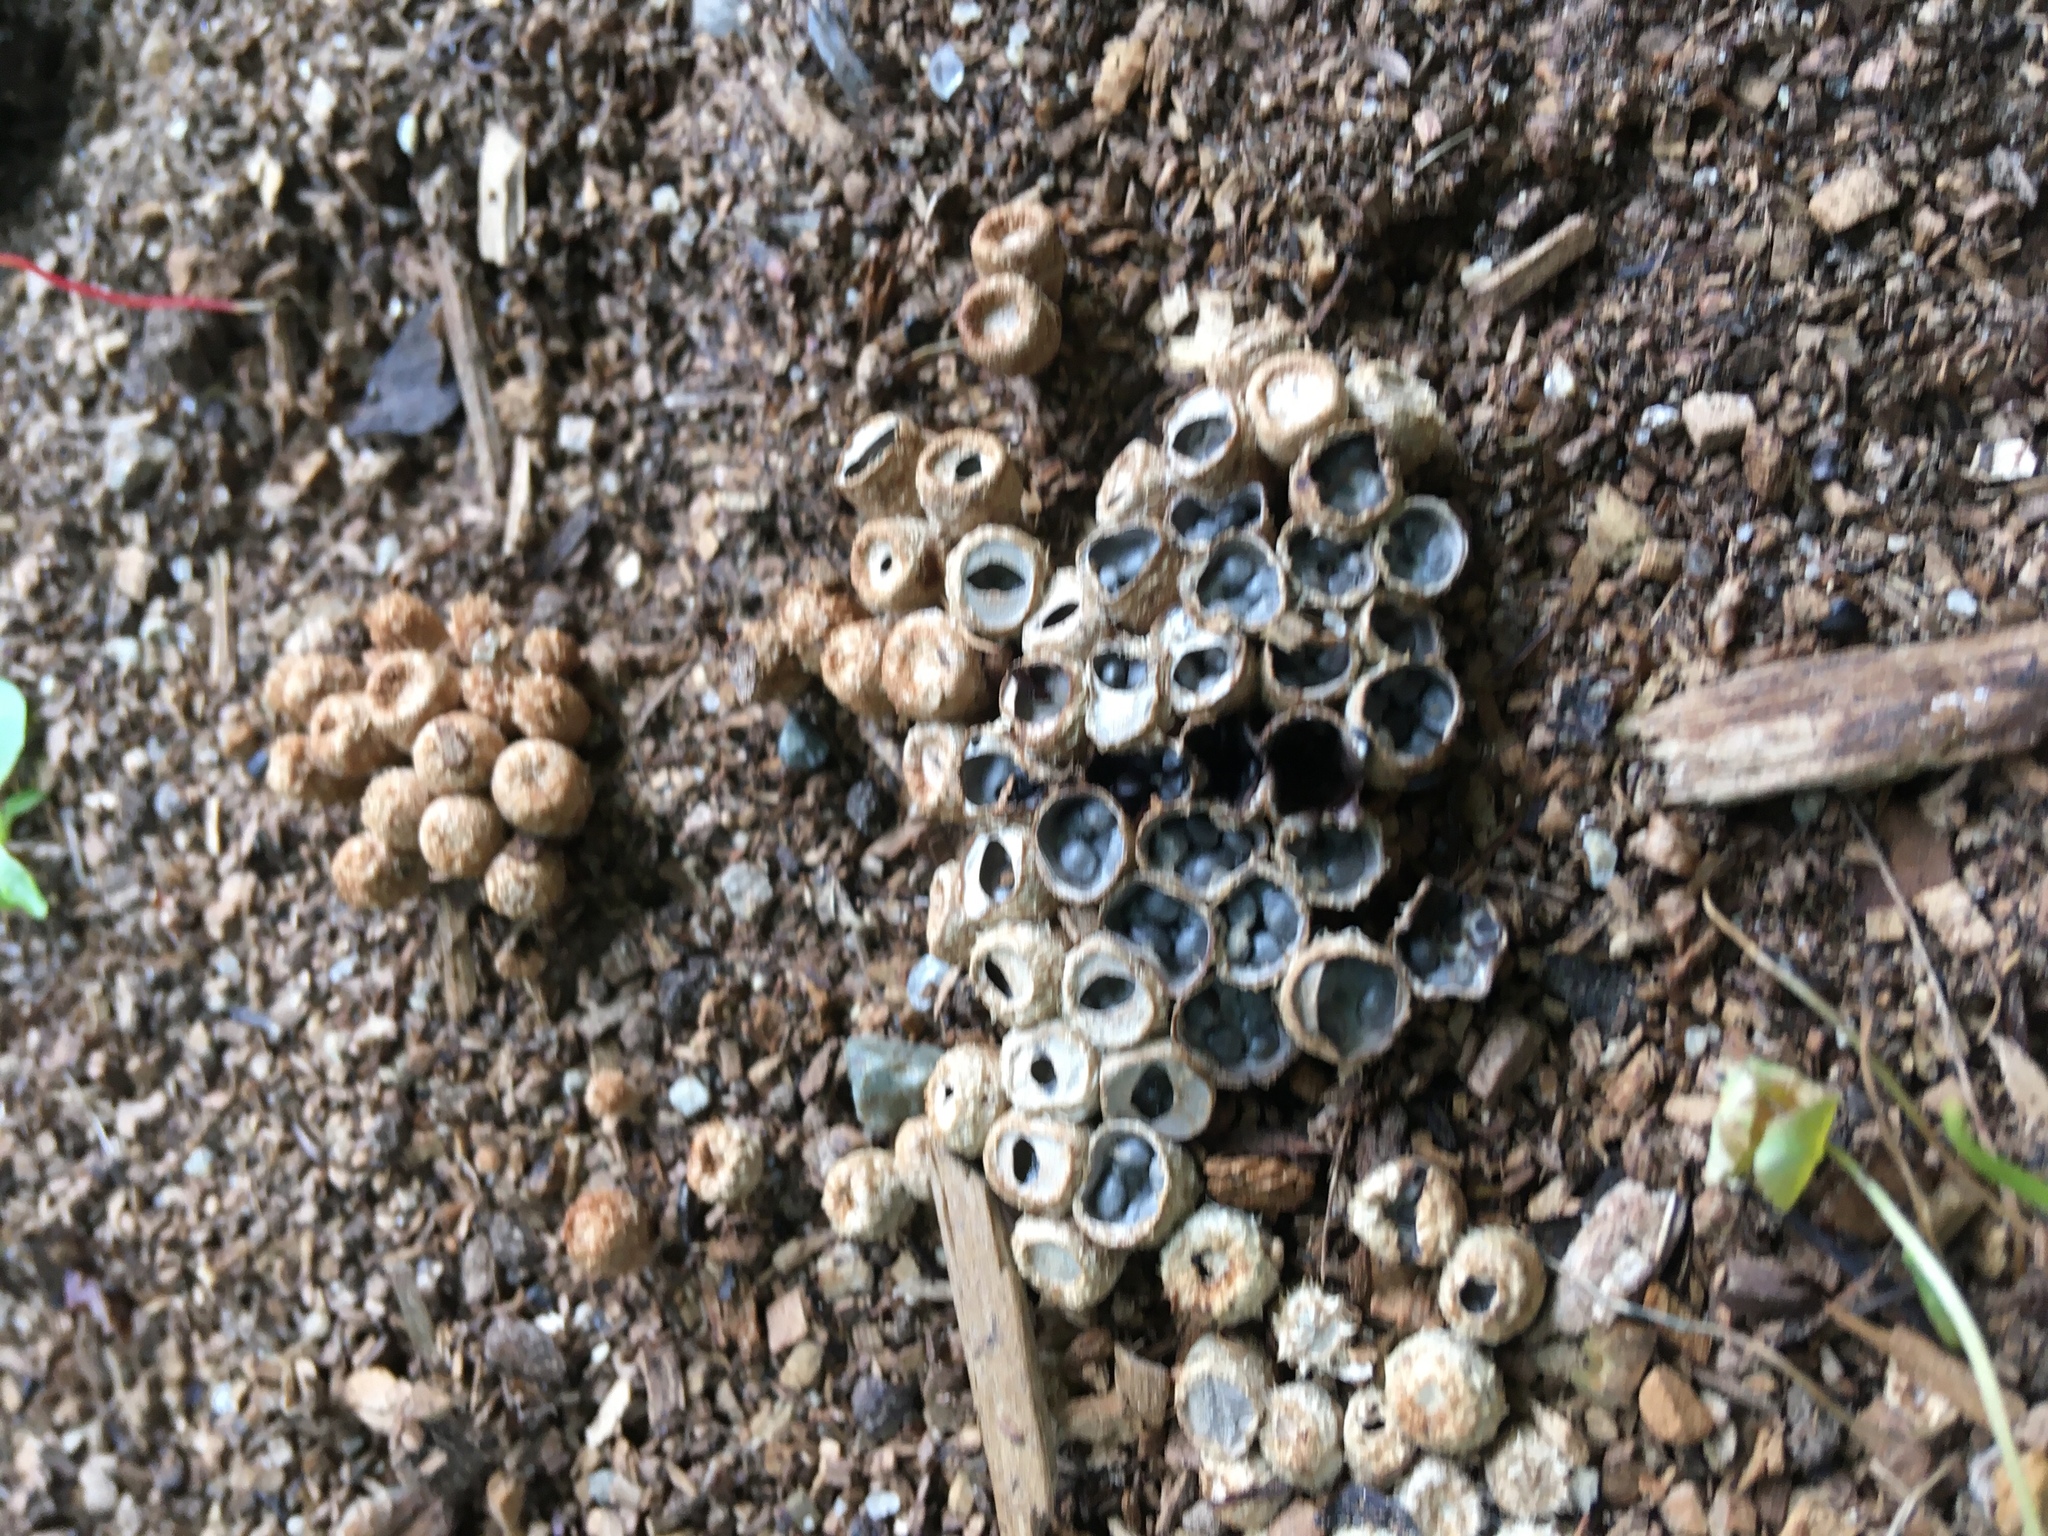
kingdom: Fungi
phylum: Basidiomycota
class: Agaricomycetes
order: Agaricales
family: Agaricaceae
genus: Cyathus
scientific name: Cyathus olla
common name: Field bird's nest
